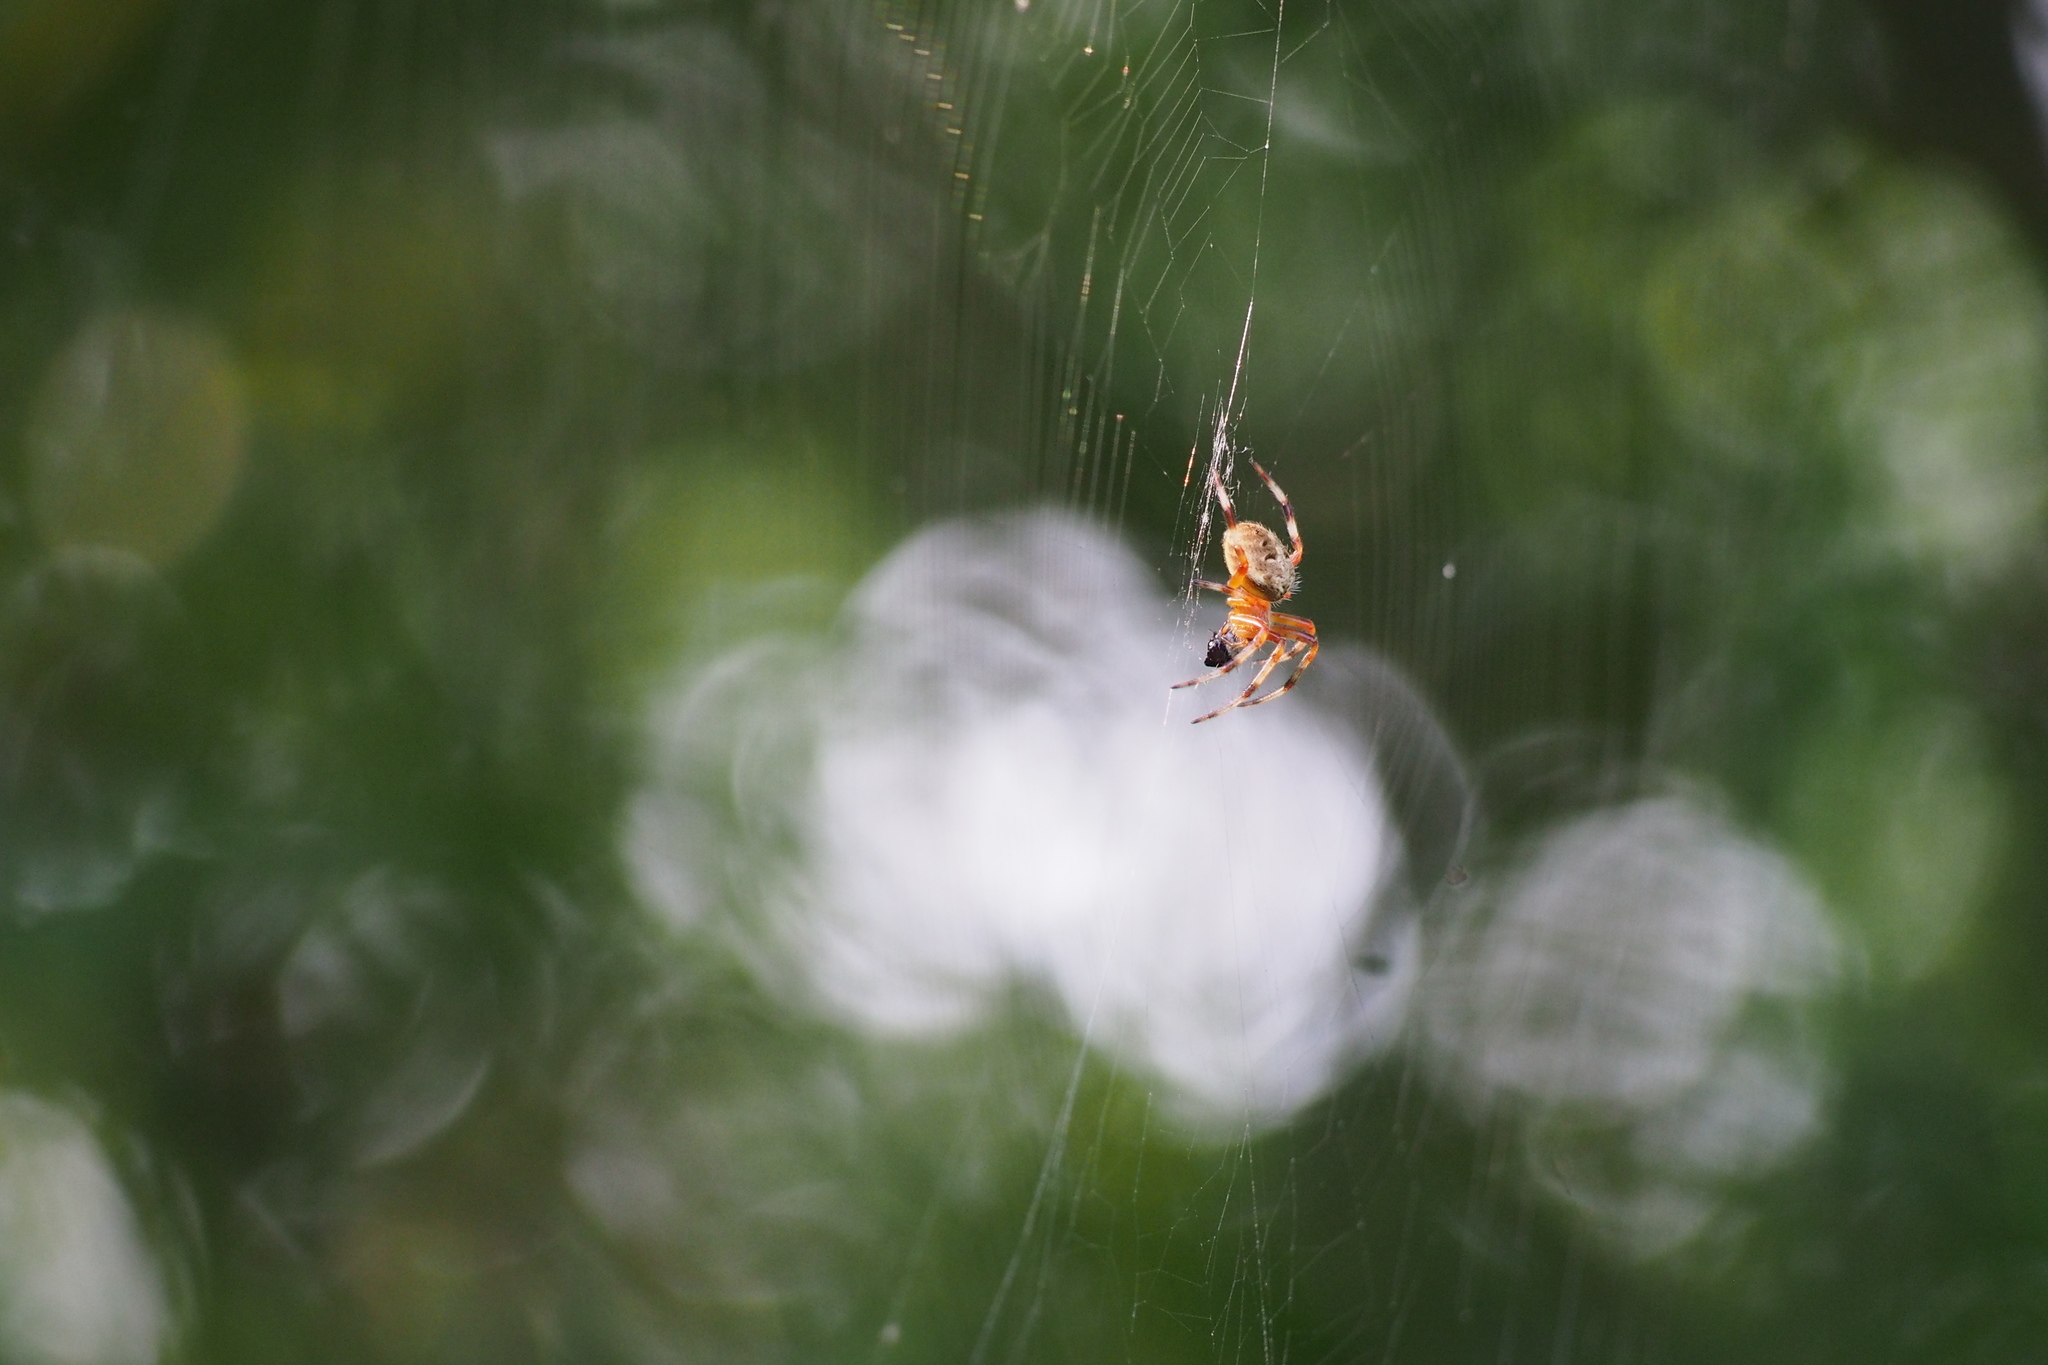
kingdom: Animalia
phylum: Arthropoda
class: Arachnida
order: Araneae
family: Araneidae
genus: Neoscona
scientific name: Neoscona scylla
